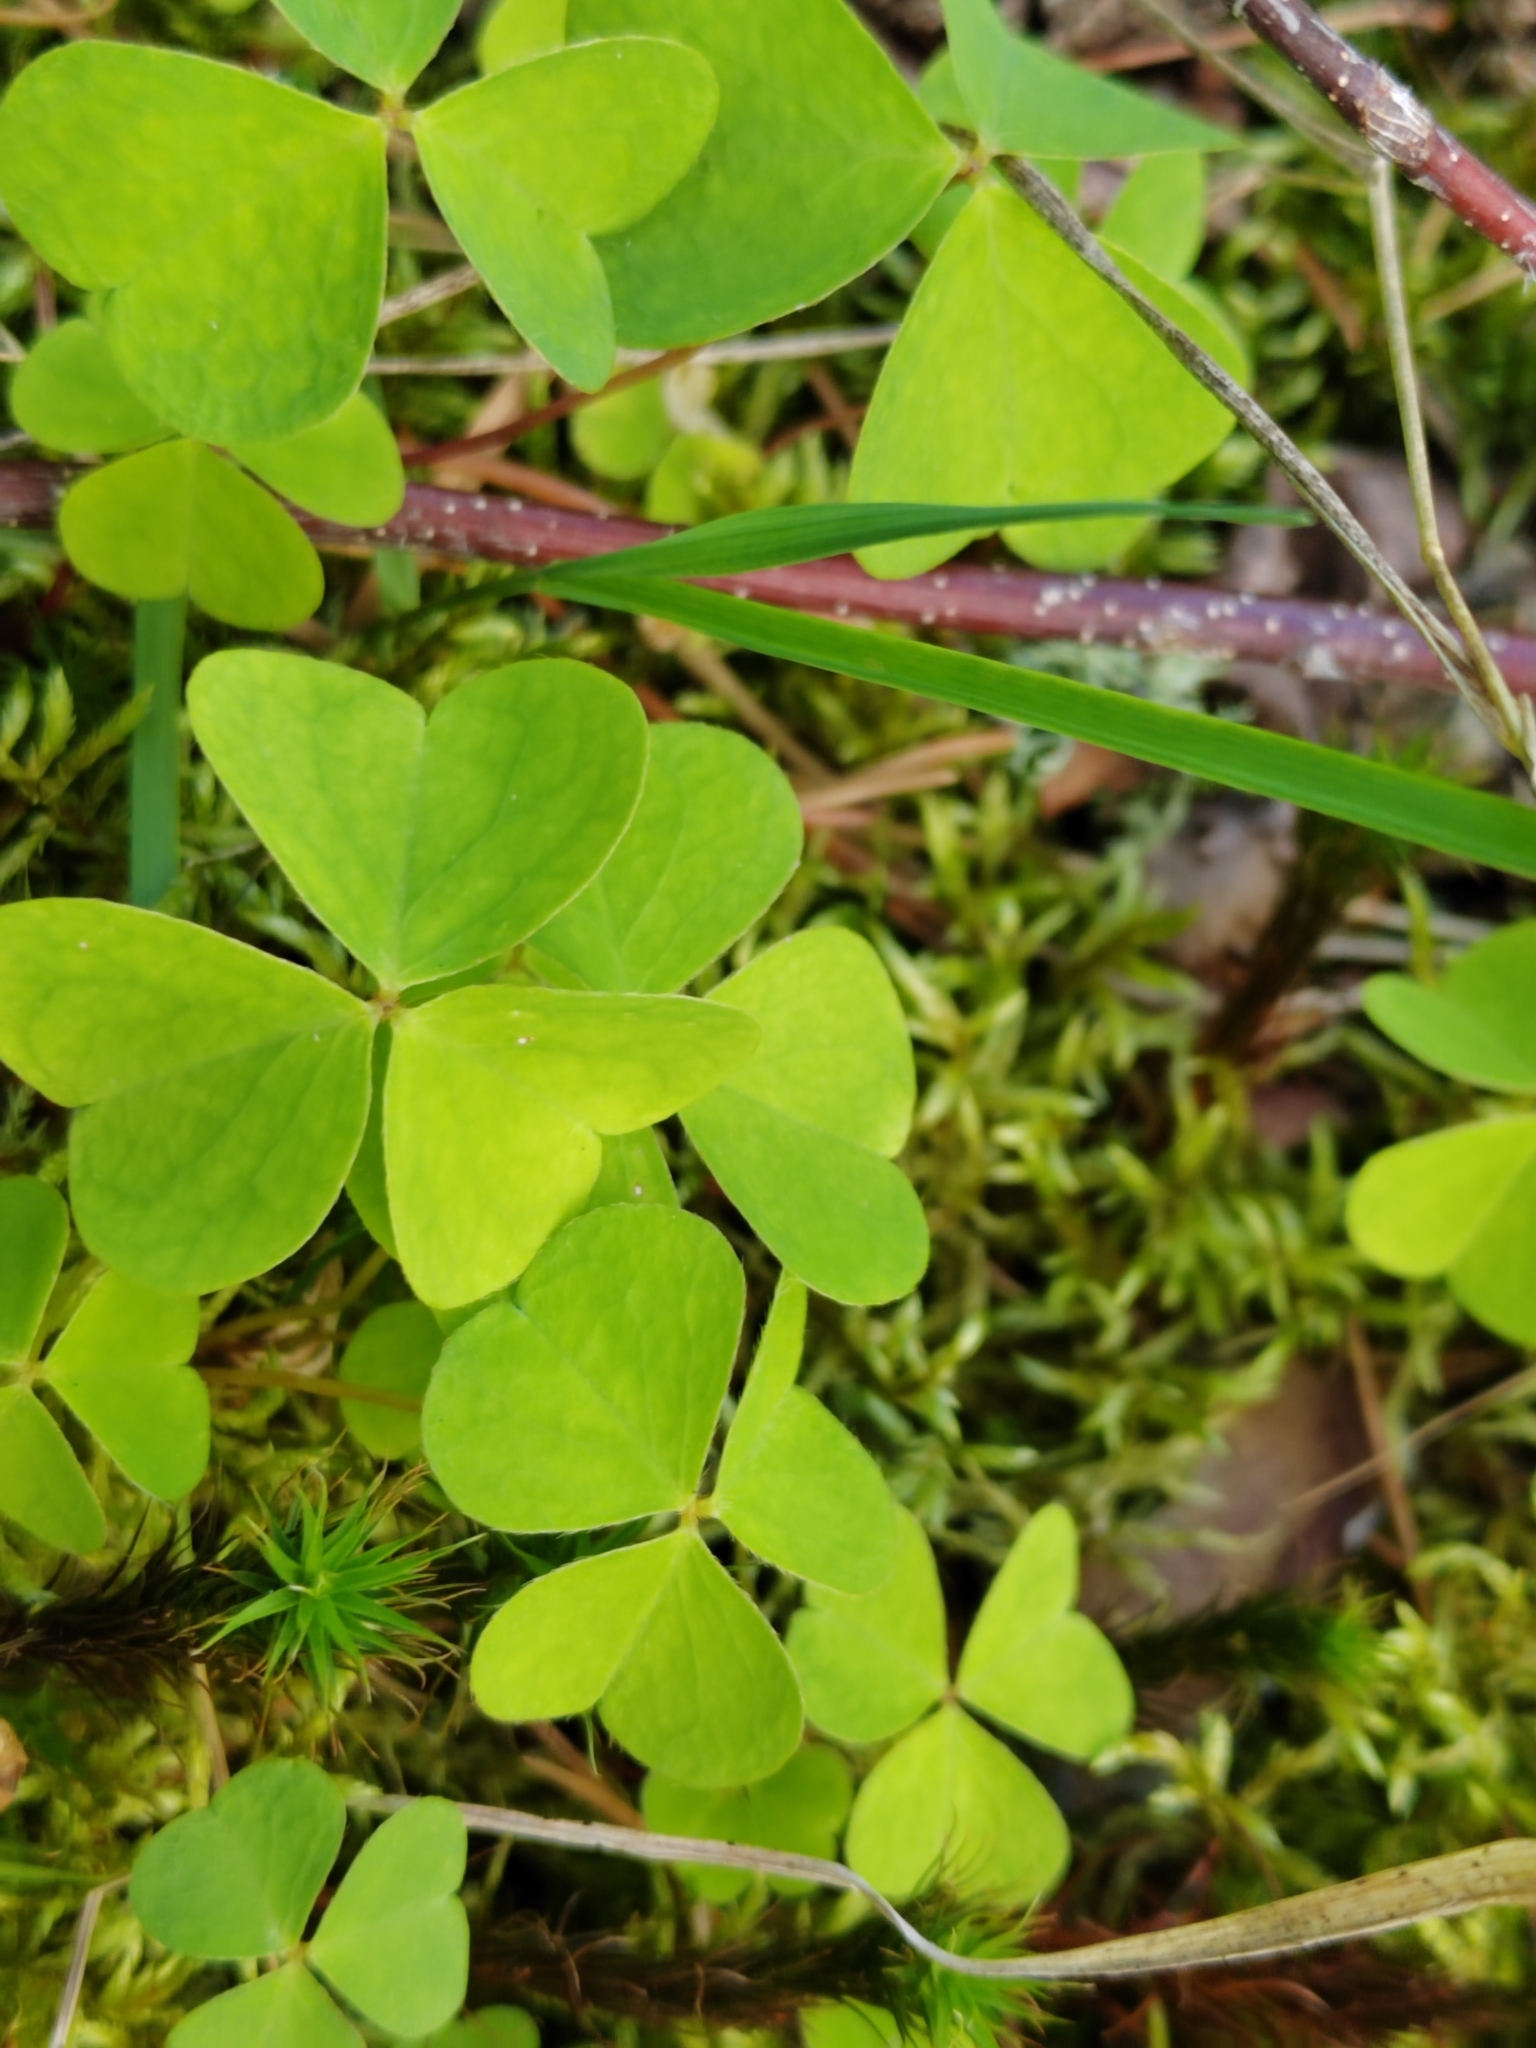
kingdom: Plantae
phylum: Tracheophyta
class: Magnoliopsida
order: Oxalidales
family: Oxalidaceae
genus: Oxalis
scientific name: Oxalis acetosella
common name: Wood-sorrel
